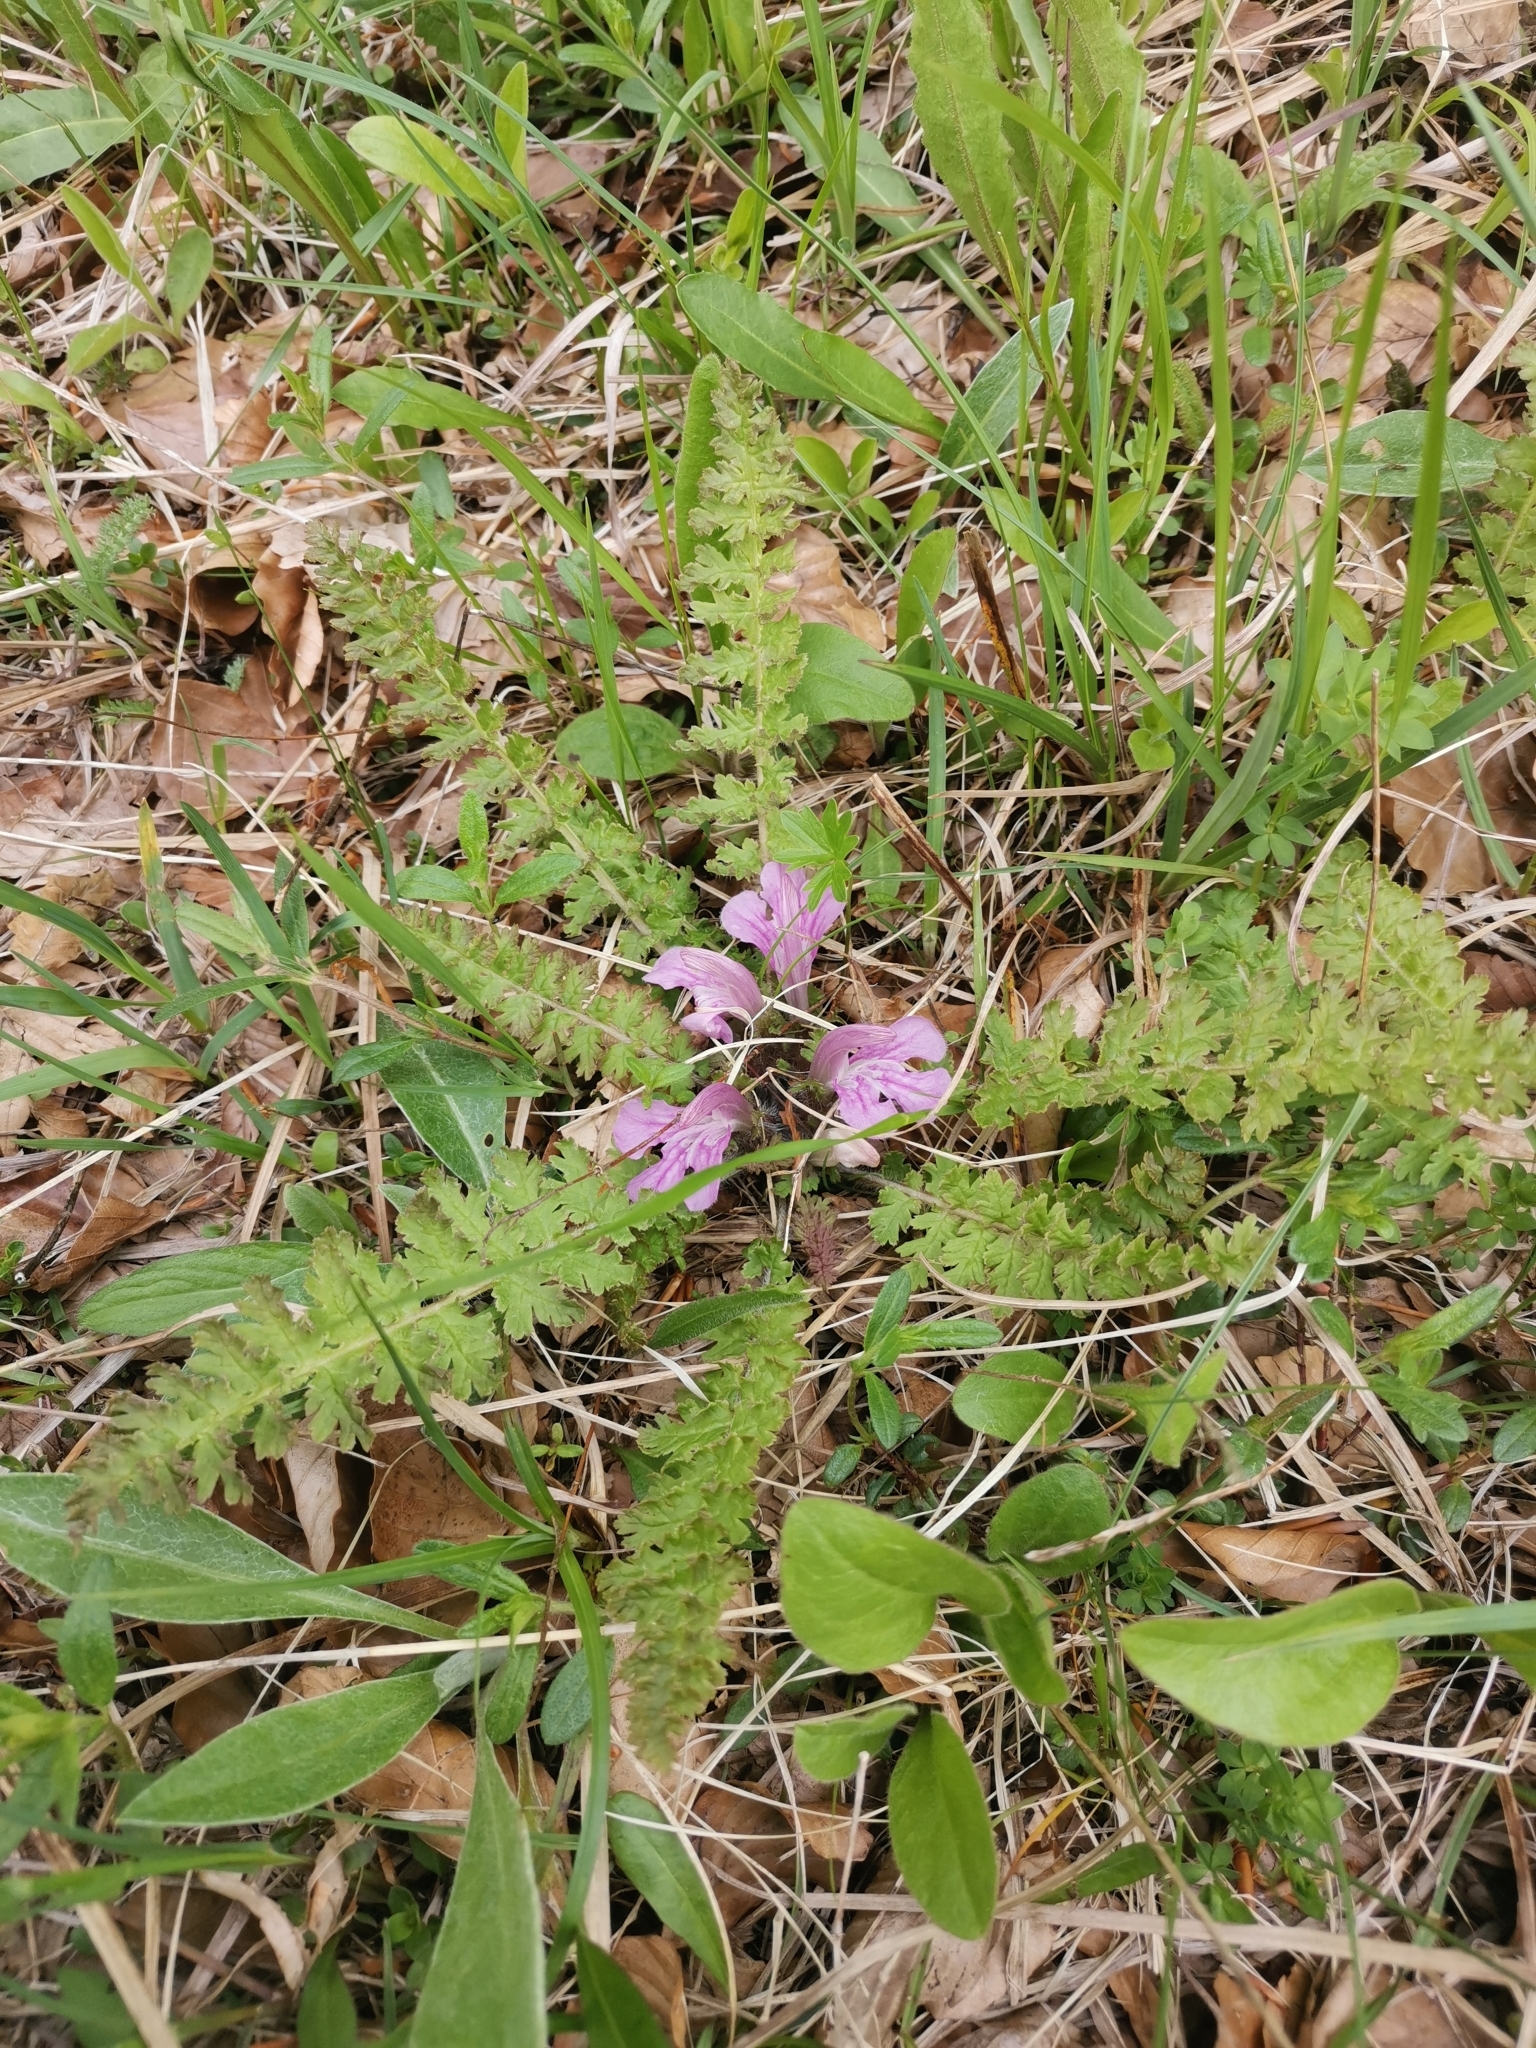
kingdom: Plantae
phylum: Tracheophyta
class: Magnoliopsida
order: Lamiales
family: Orobanchaceae
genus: Pedicularis
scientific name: Pedicularis acaulis
